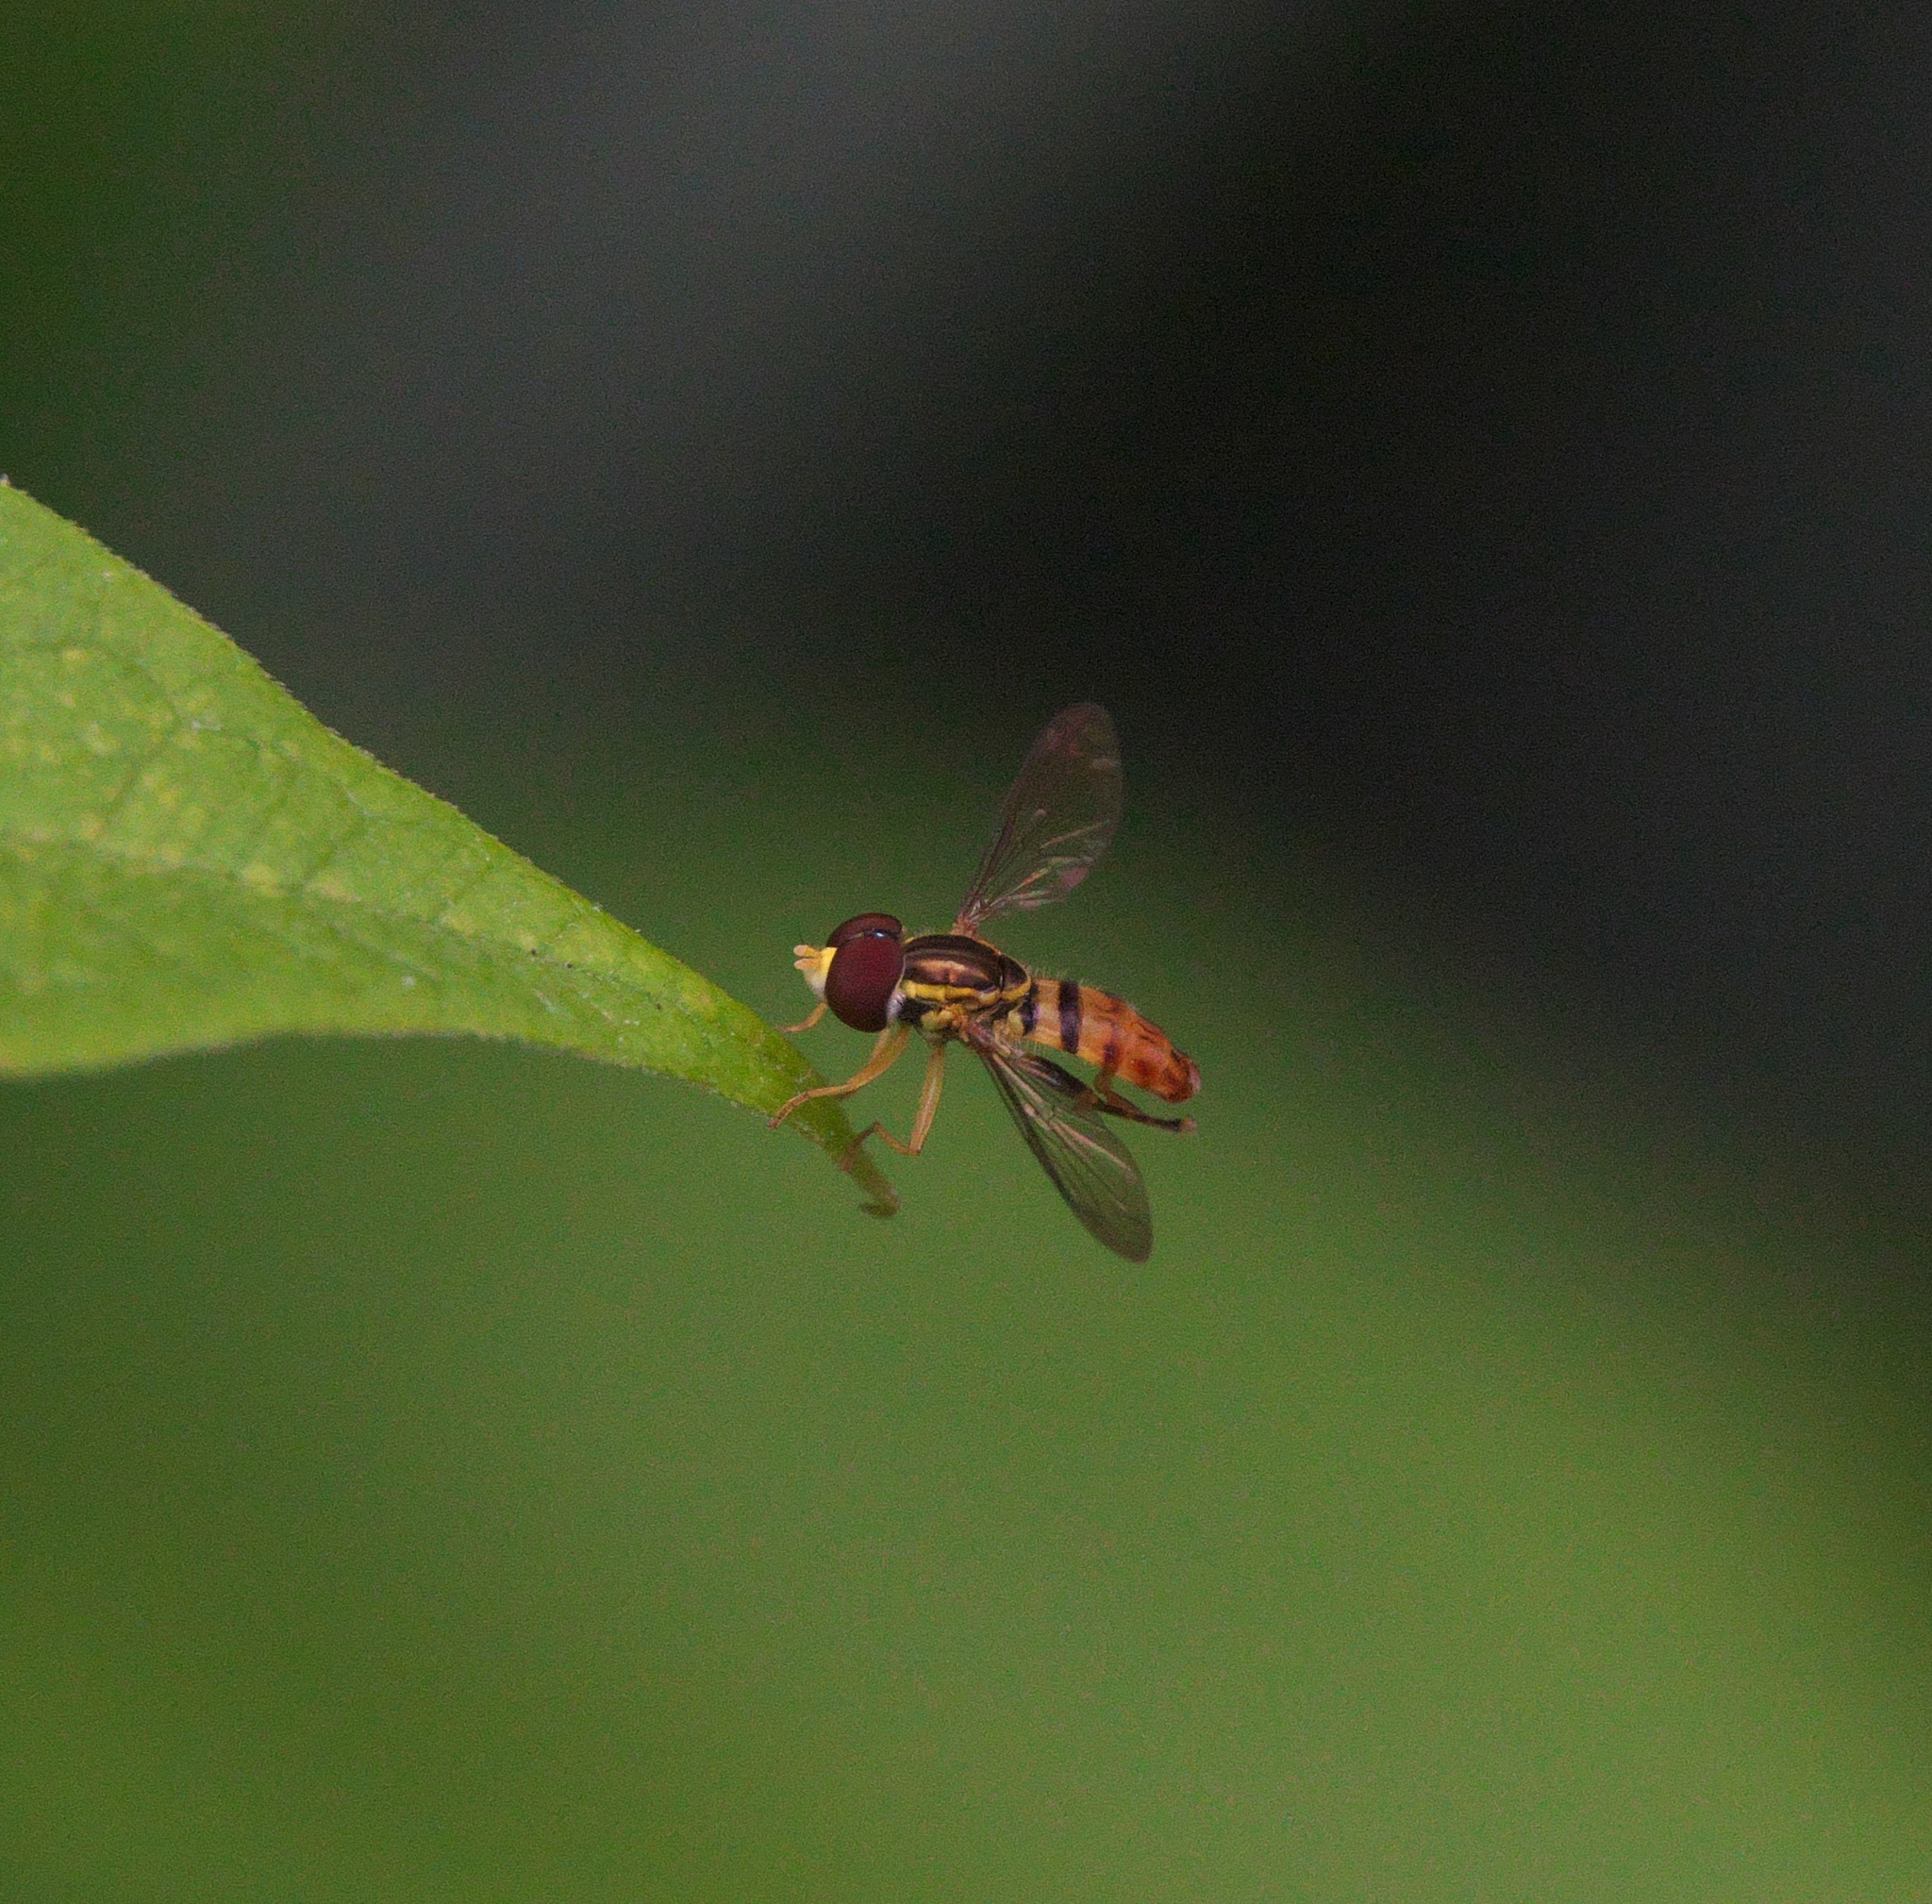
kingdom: Animalia
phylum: Arthropoda
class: Insecta
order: Diptera
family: Syrphidae
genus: Toxomerus
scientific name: Toxomerus geminatus
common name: Eastern calligrapher
